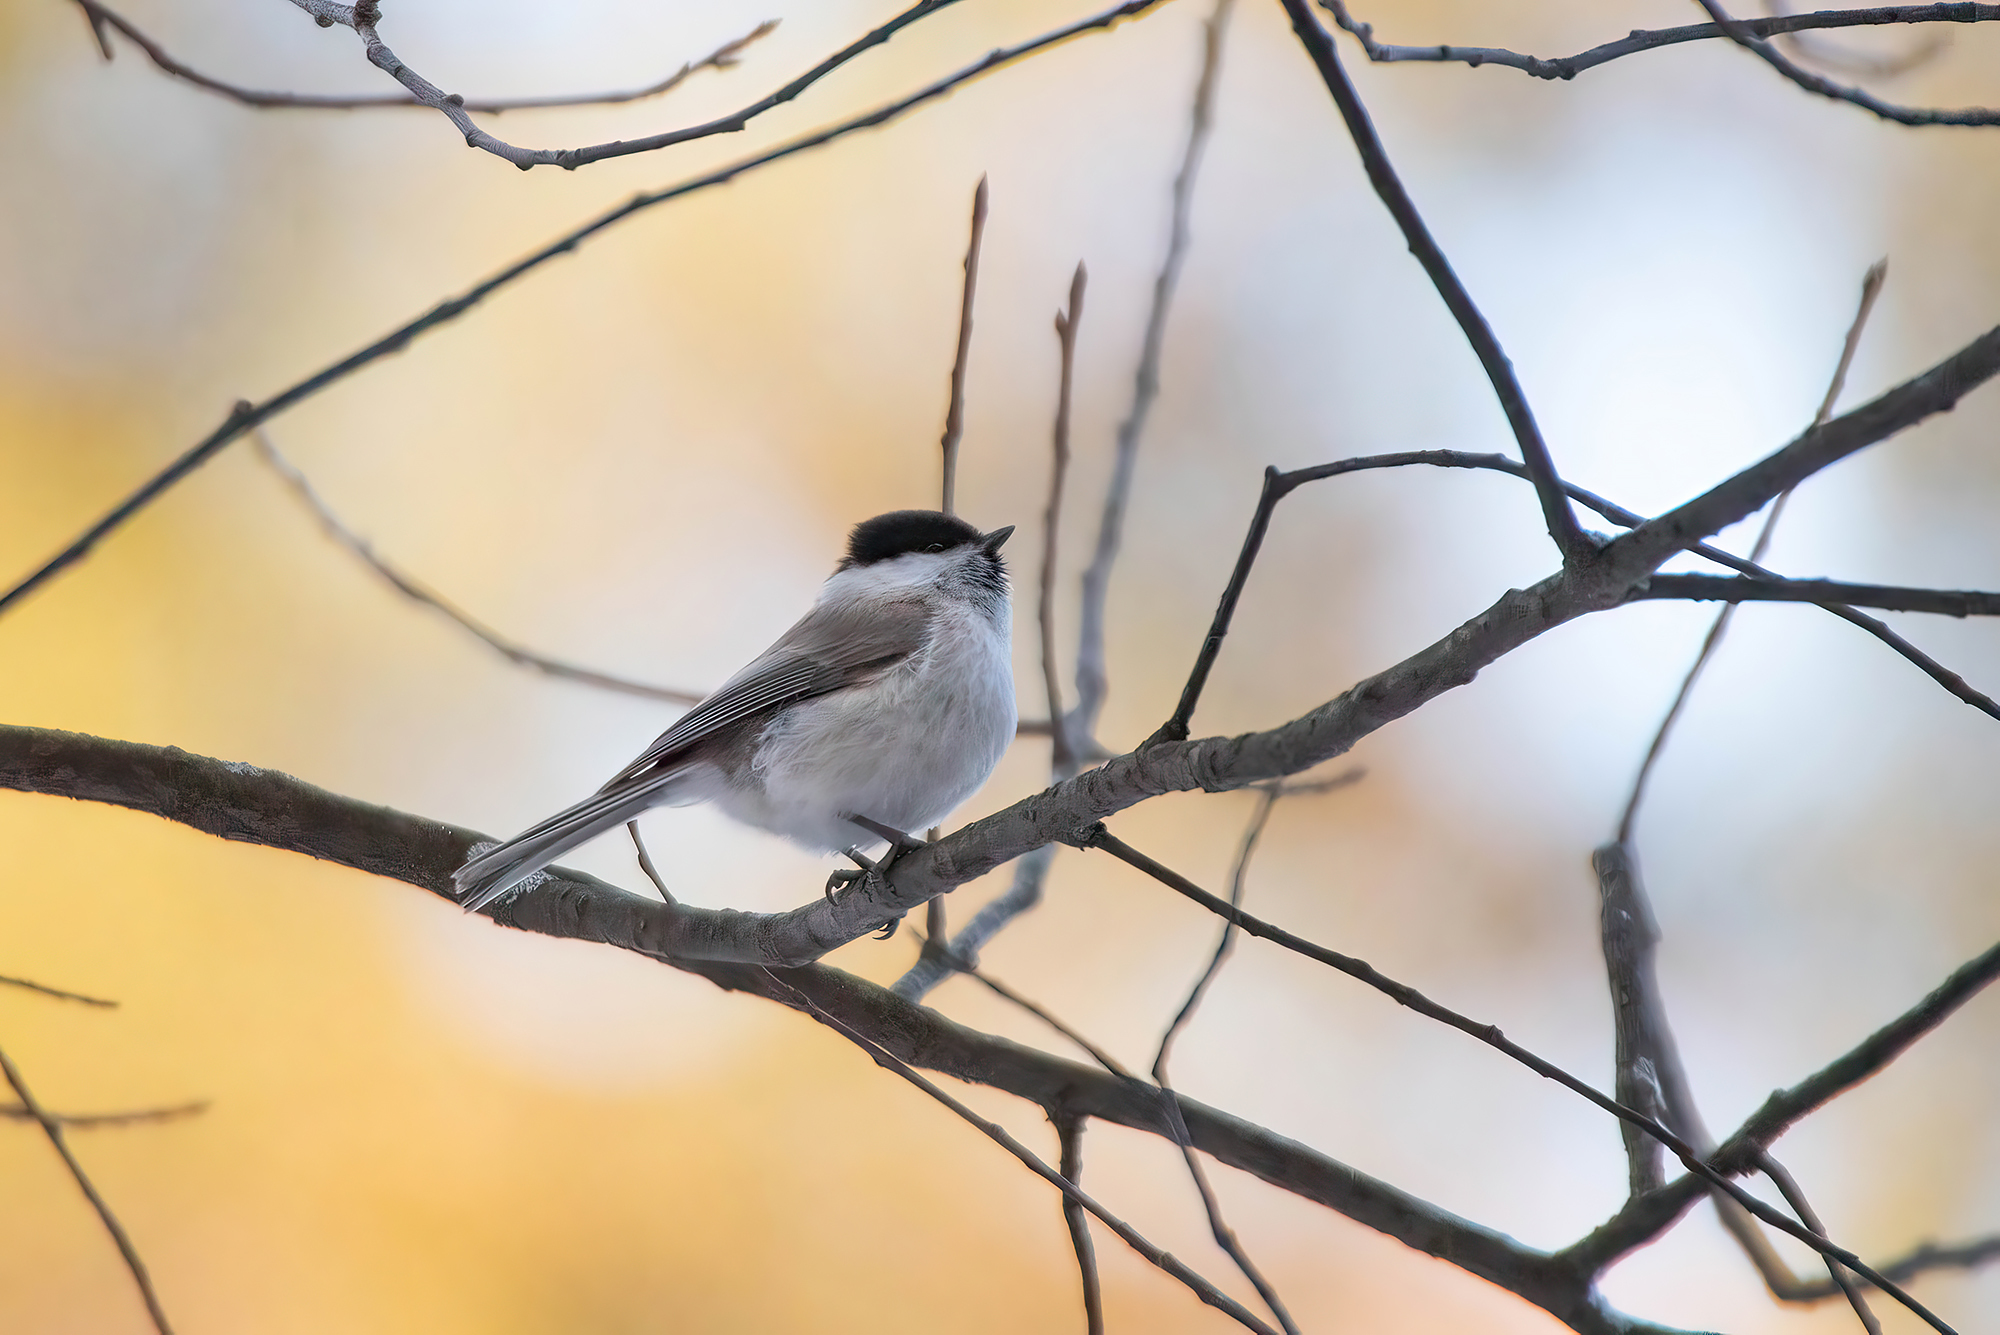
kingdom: Animalia
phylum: Chordata
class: Aves
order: Passeriformes
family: Paridae
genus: Poecile
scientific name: Poecile palustris
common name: Marsh tit
